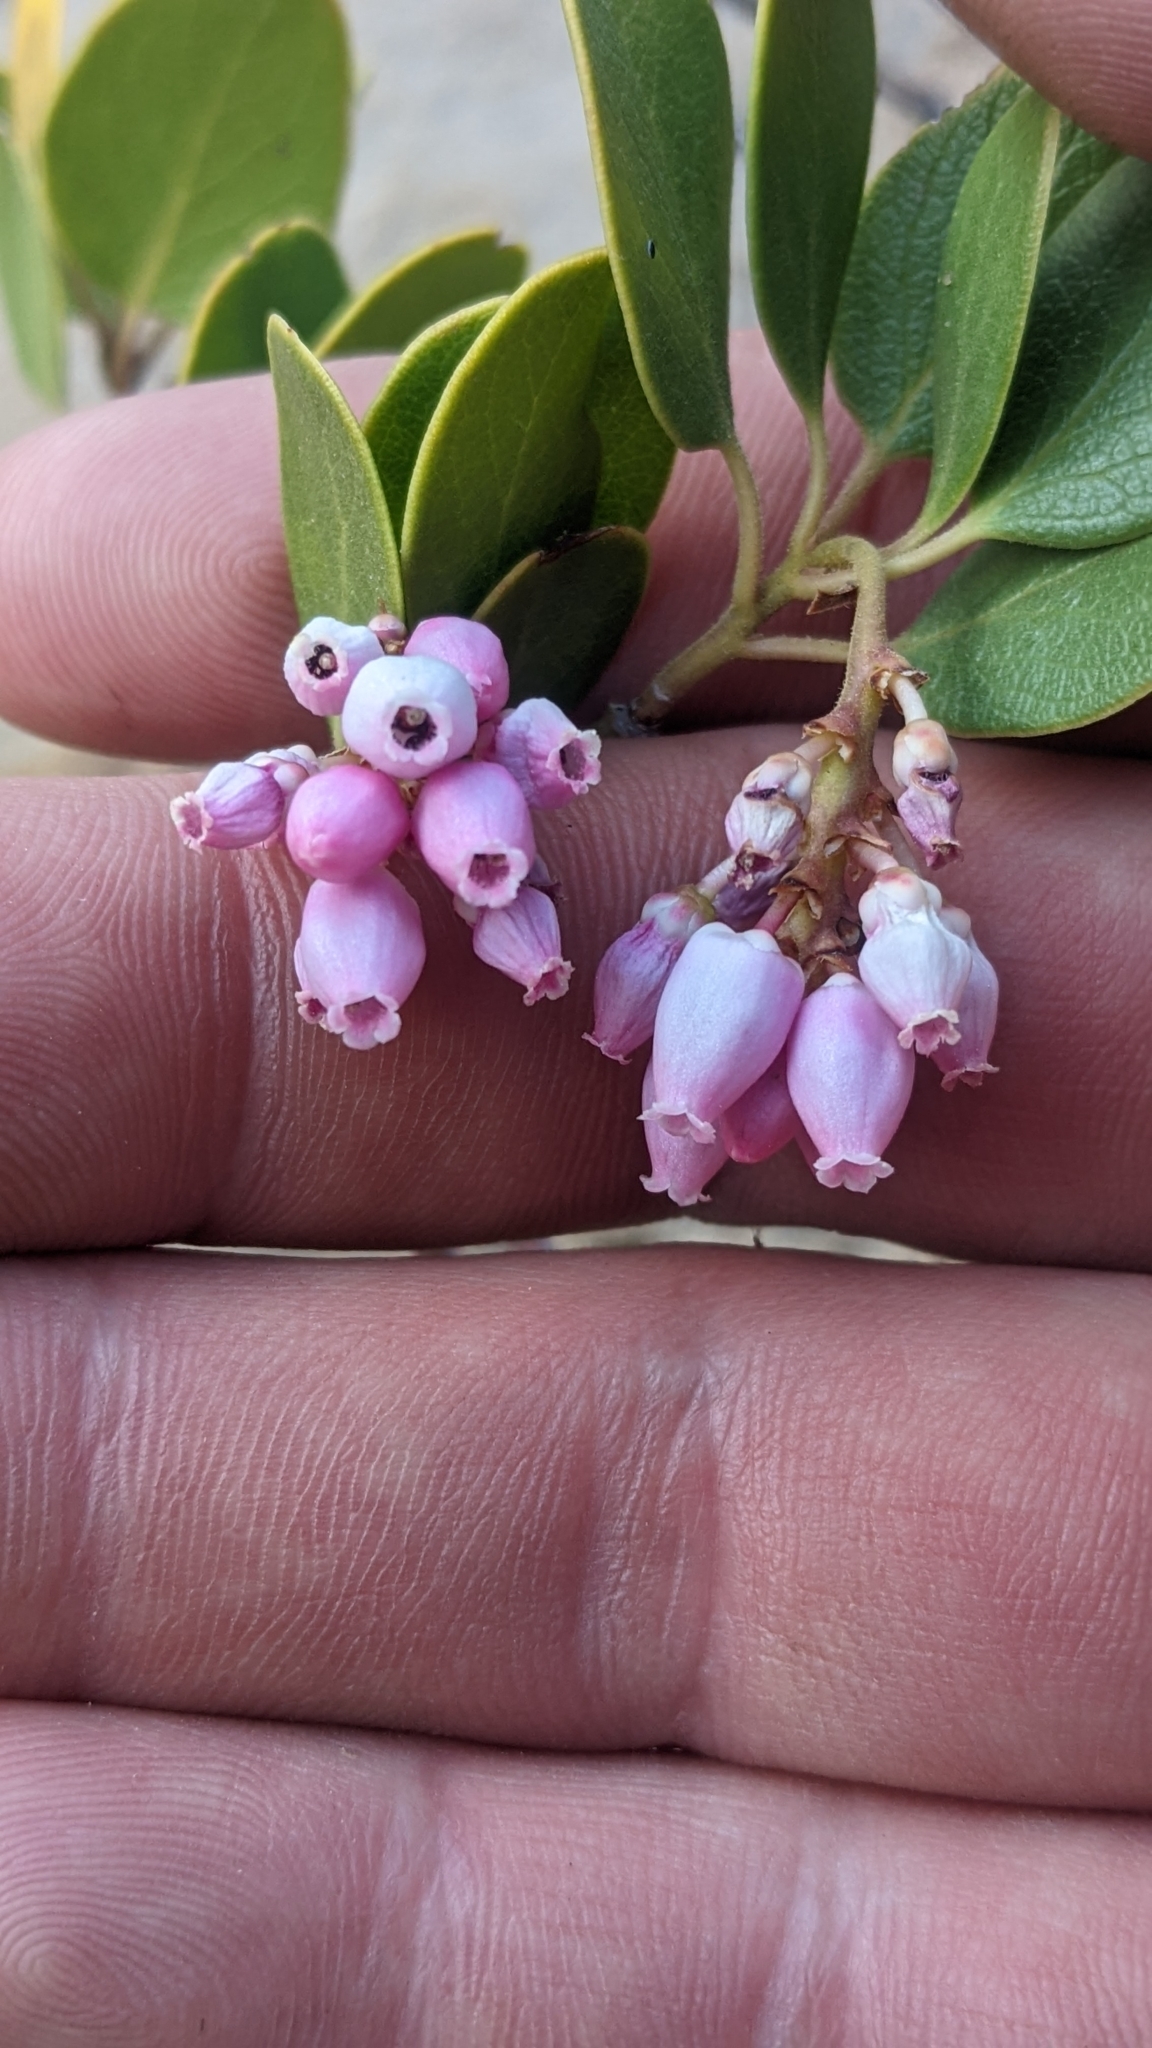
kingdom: Plantae
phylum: Tracheophyta
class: Magnoliopsida
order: Ericales
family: Ericaceae
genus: Arctostaphylos
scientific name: Arctostaphylos patula
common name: Green-leaf manzanita
